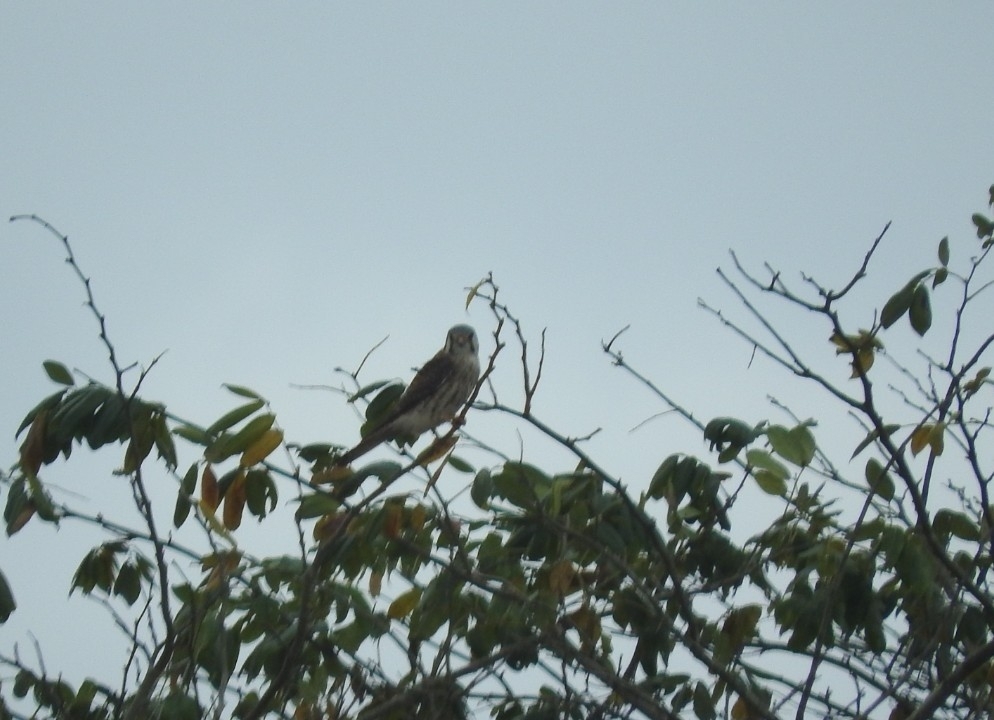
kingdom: Animalia
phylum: Chordata
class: Aves
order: Falconiformes
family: Falconidae
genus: Falco
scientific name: Falco sparverius
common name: American kestrel
